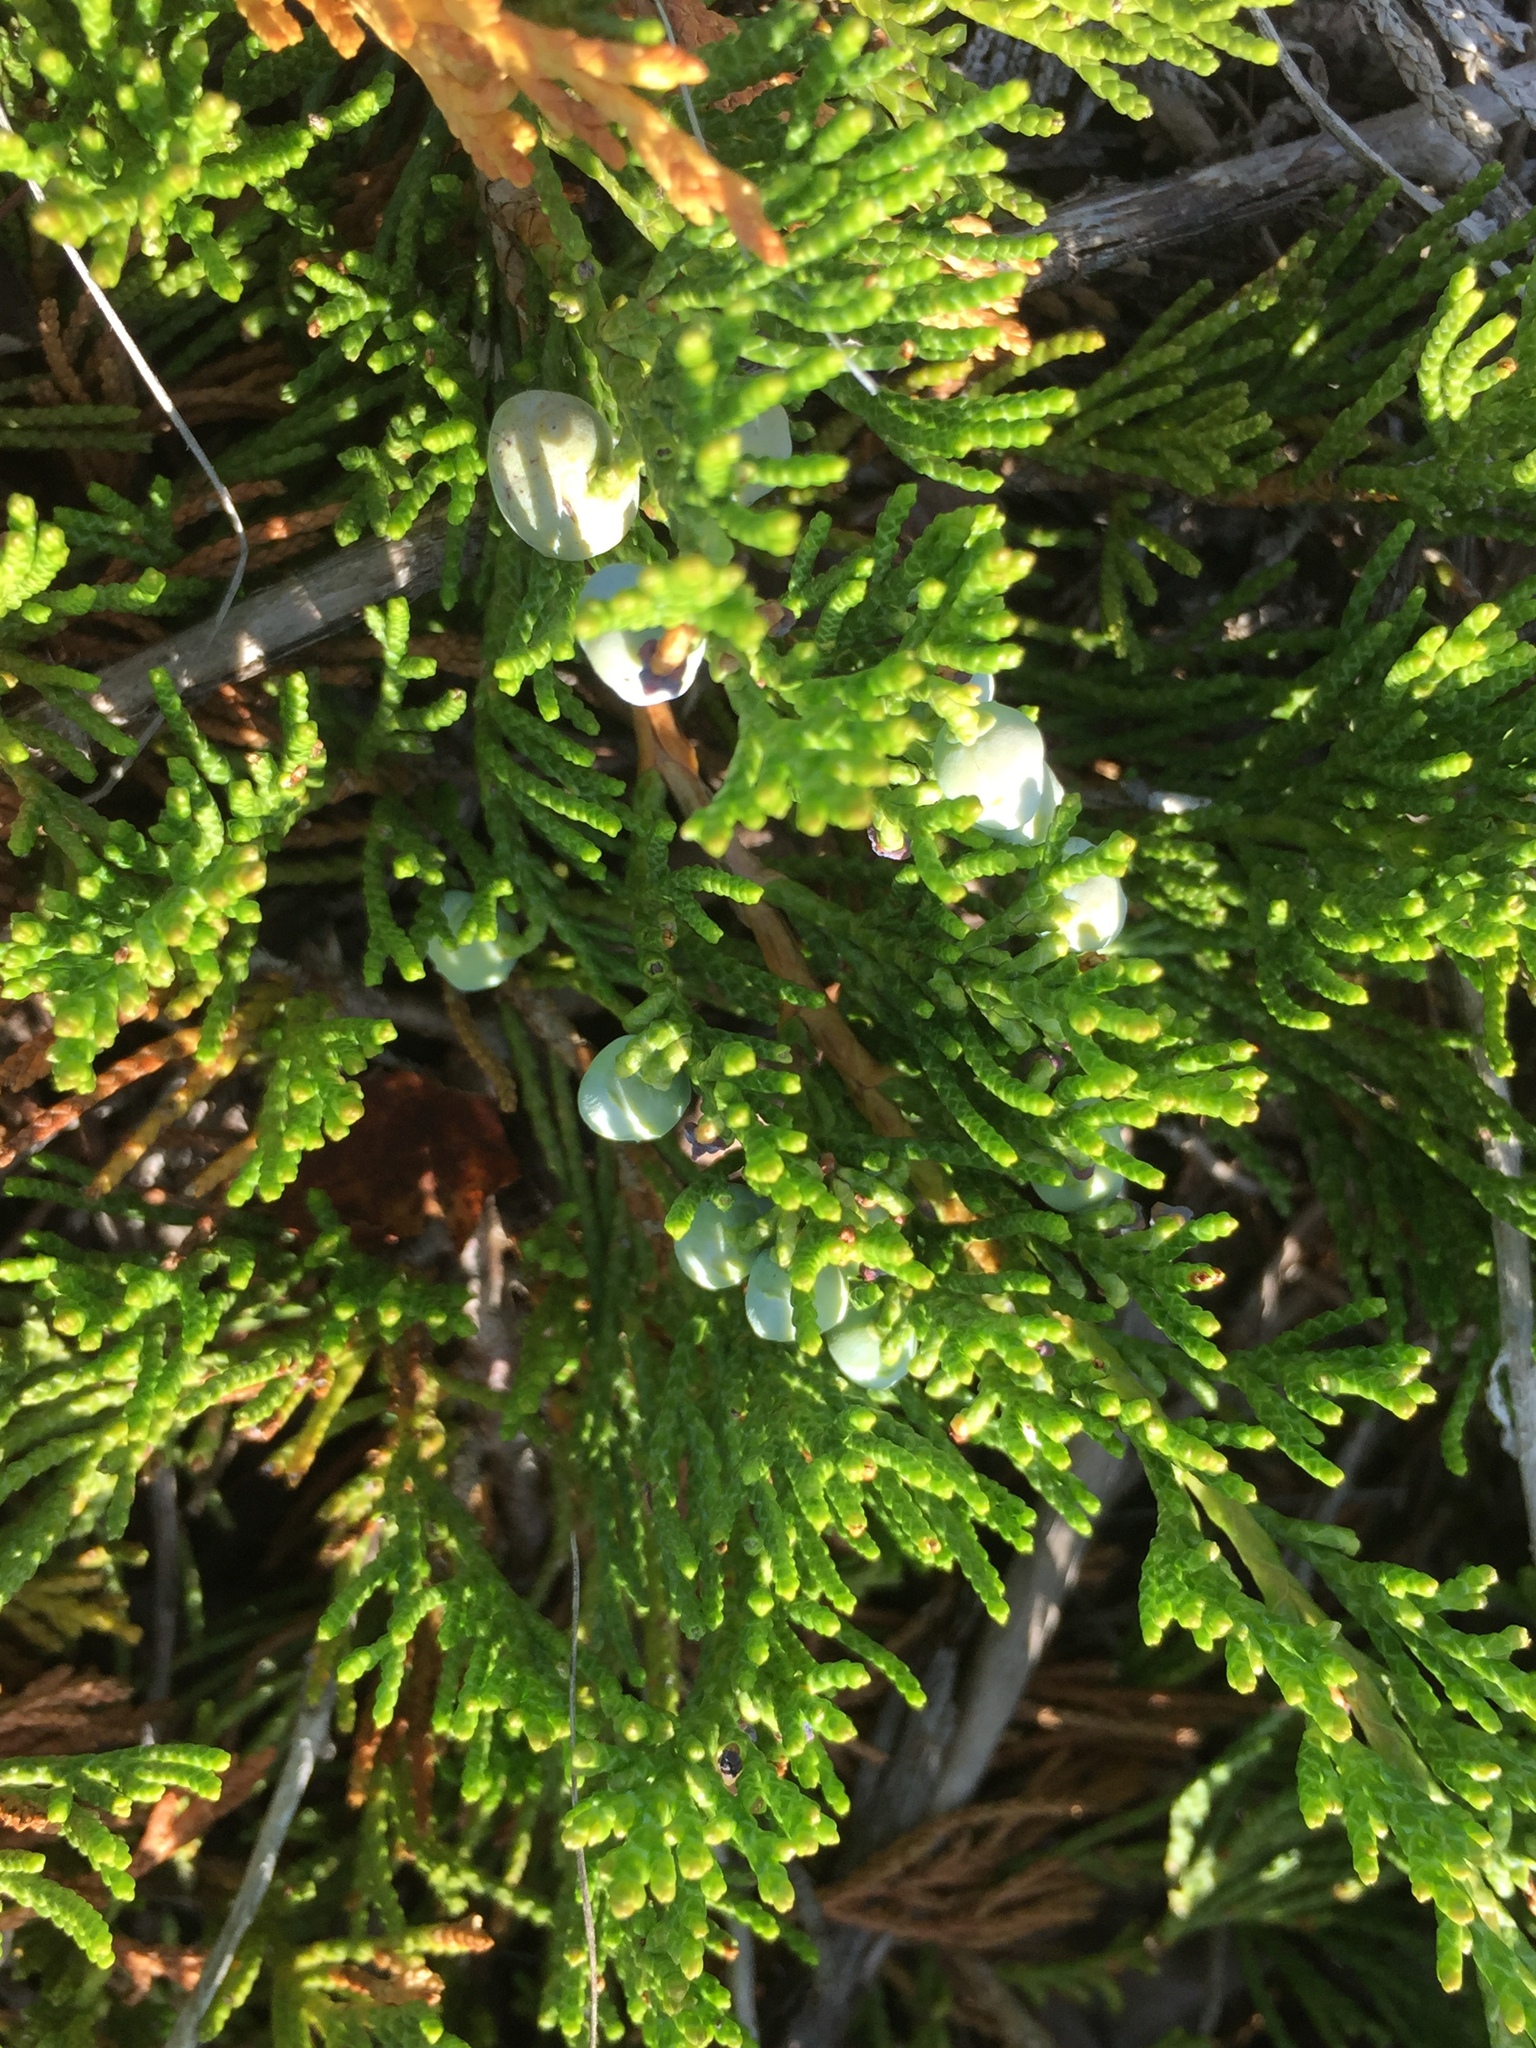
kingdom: Plantae
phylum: Tracheophyta
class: Pinopsida
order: Pinales
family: Cupressaceae
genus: Juniperus
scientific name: Juniperus horizontalis
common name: Creeping juniper
